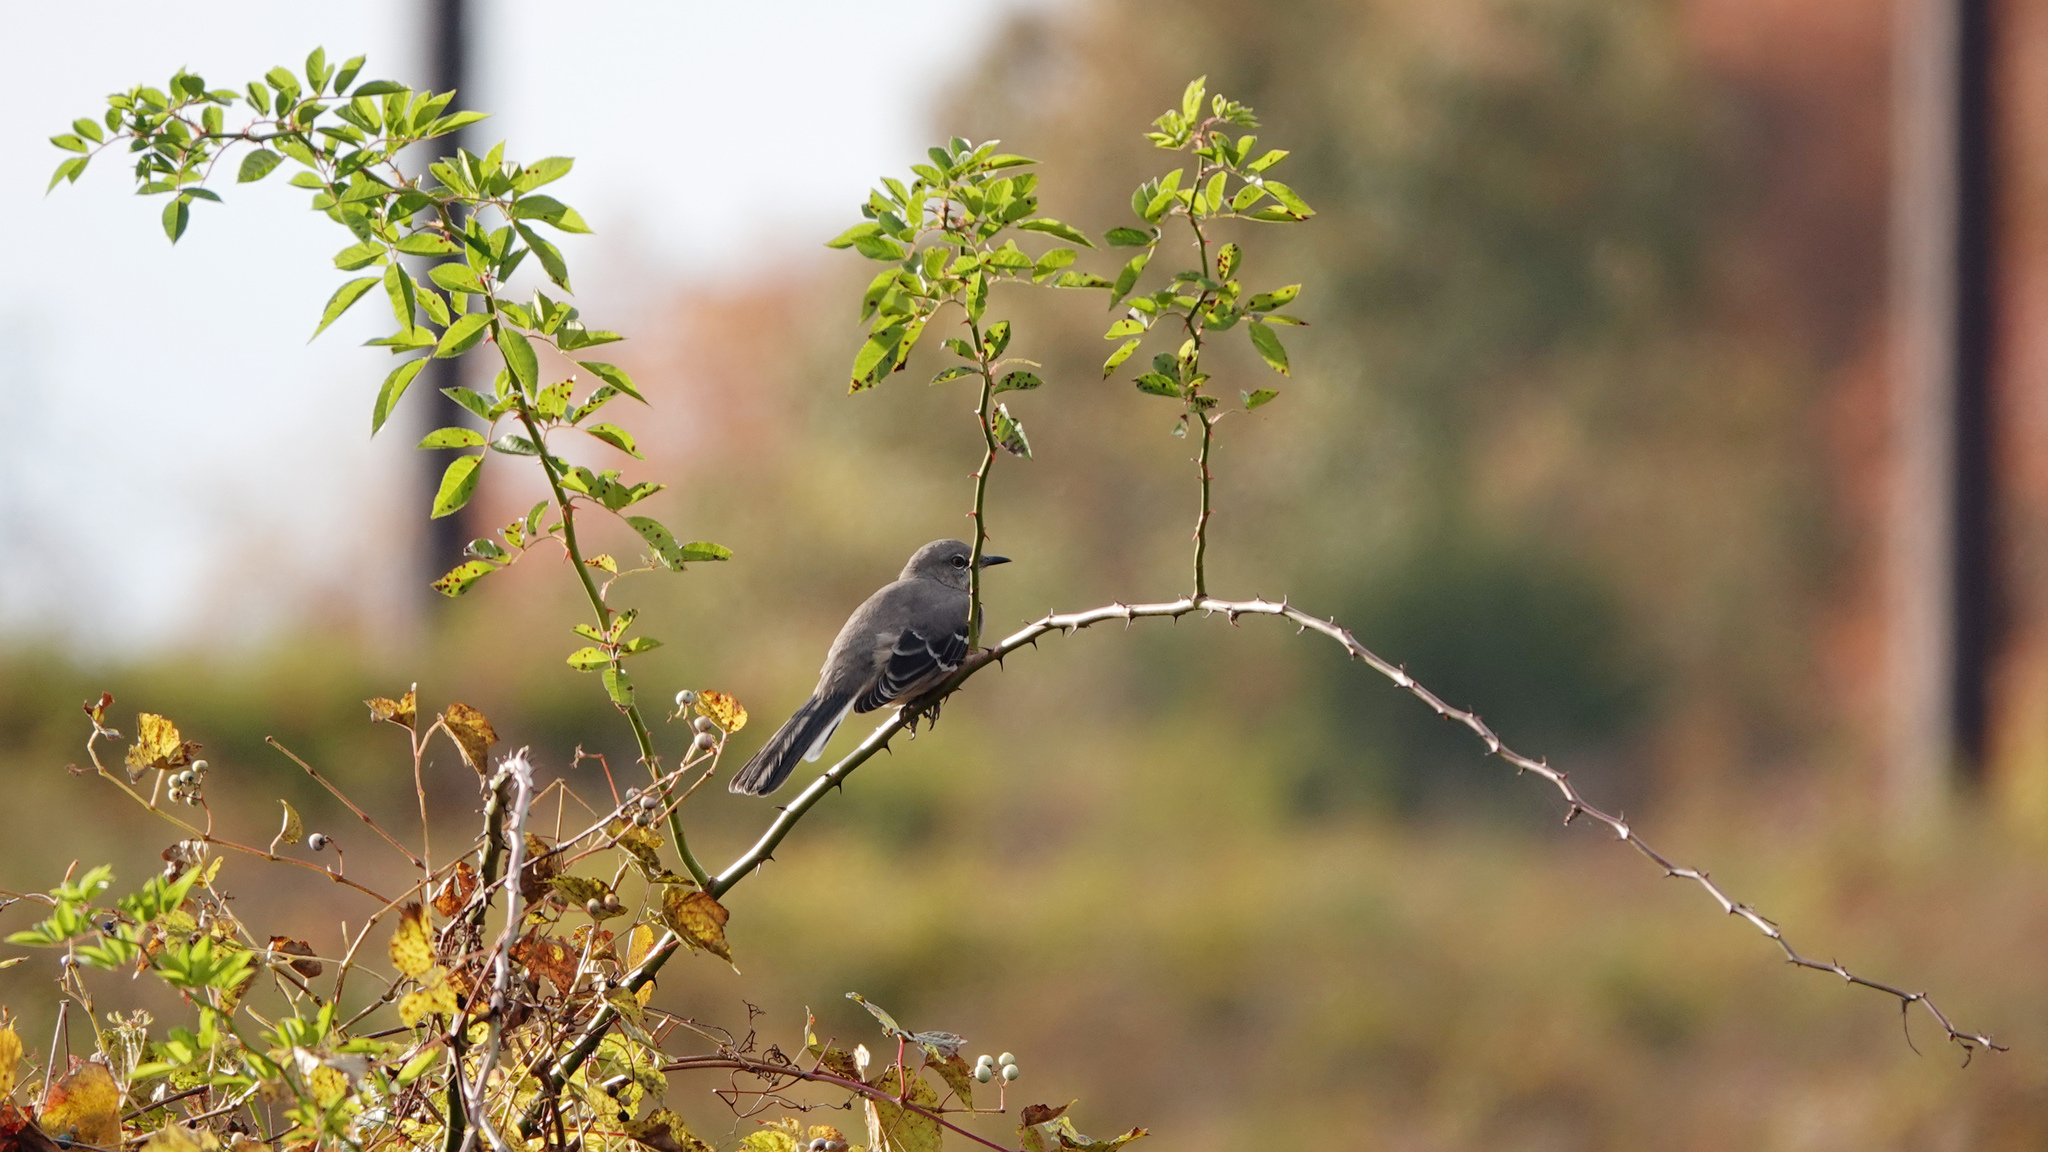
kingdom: Animalia
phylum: Chordata
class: Aves
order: Passeriformes
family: Mimidae
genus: Mimus
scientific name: Mimus polyglottos
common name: Northern mockingbird
